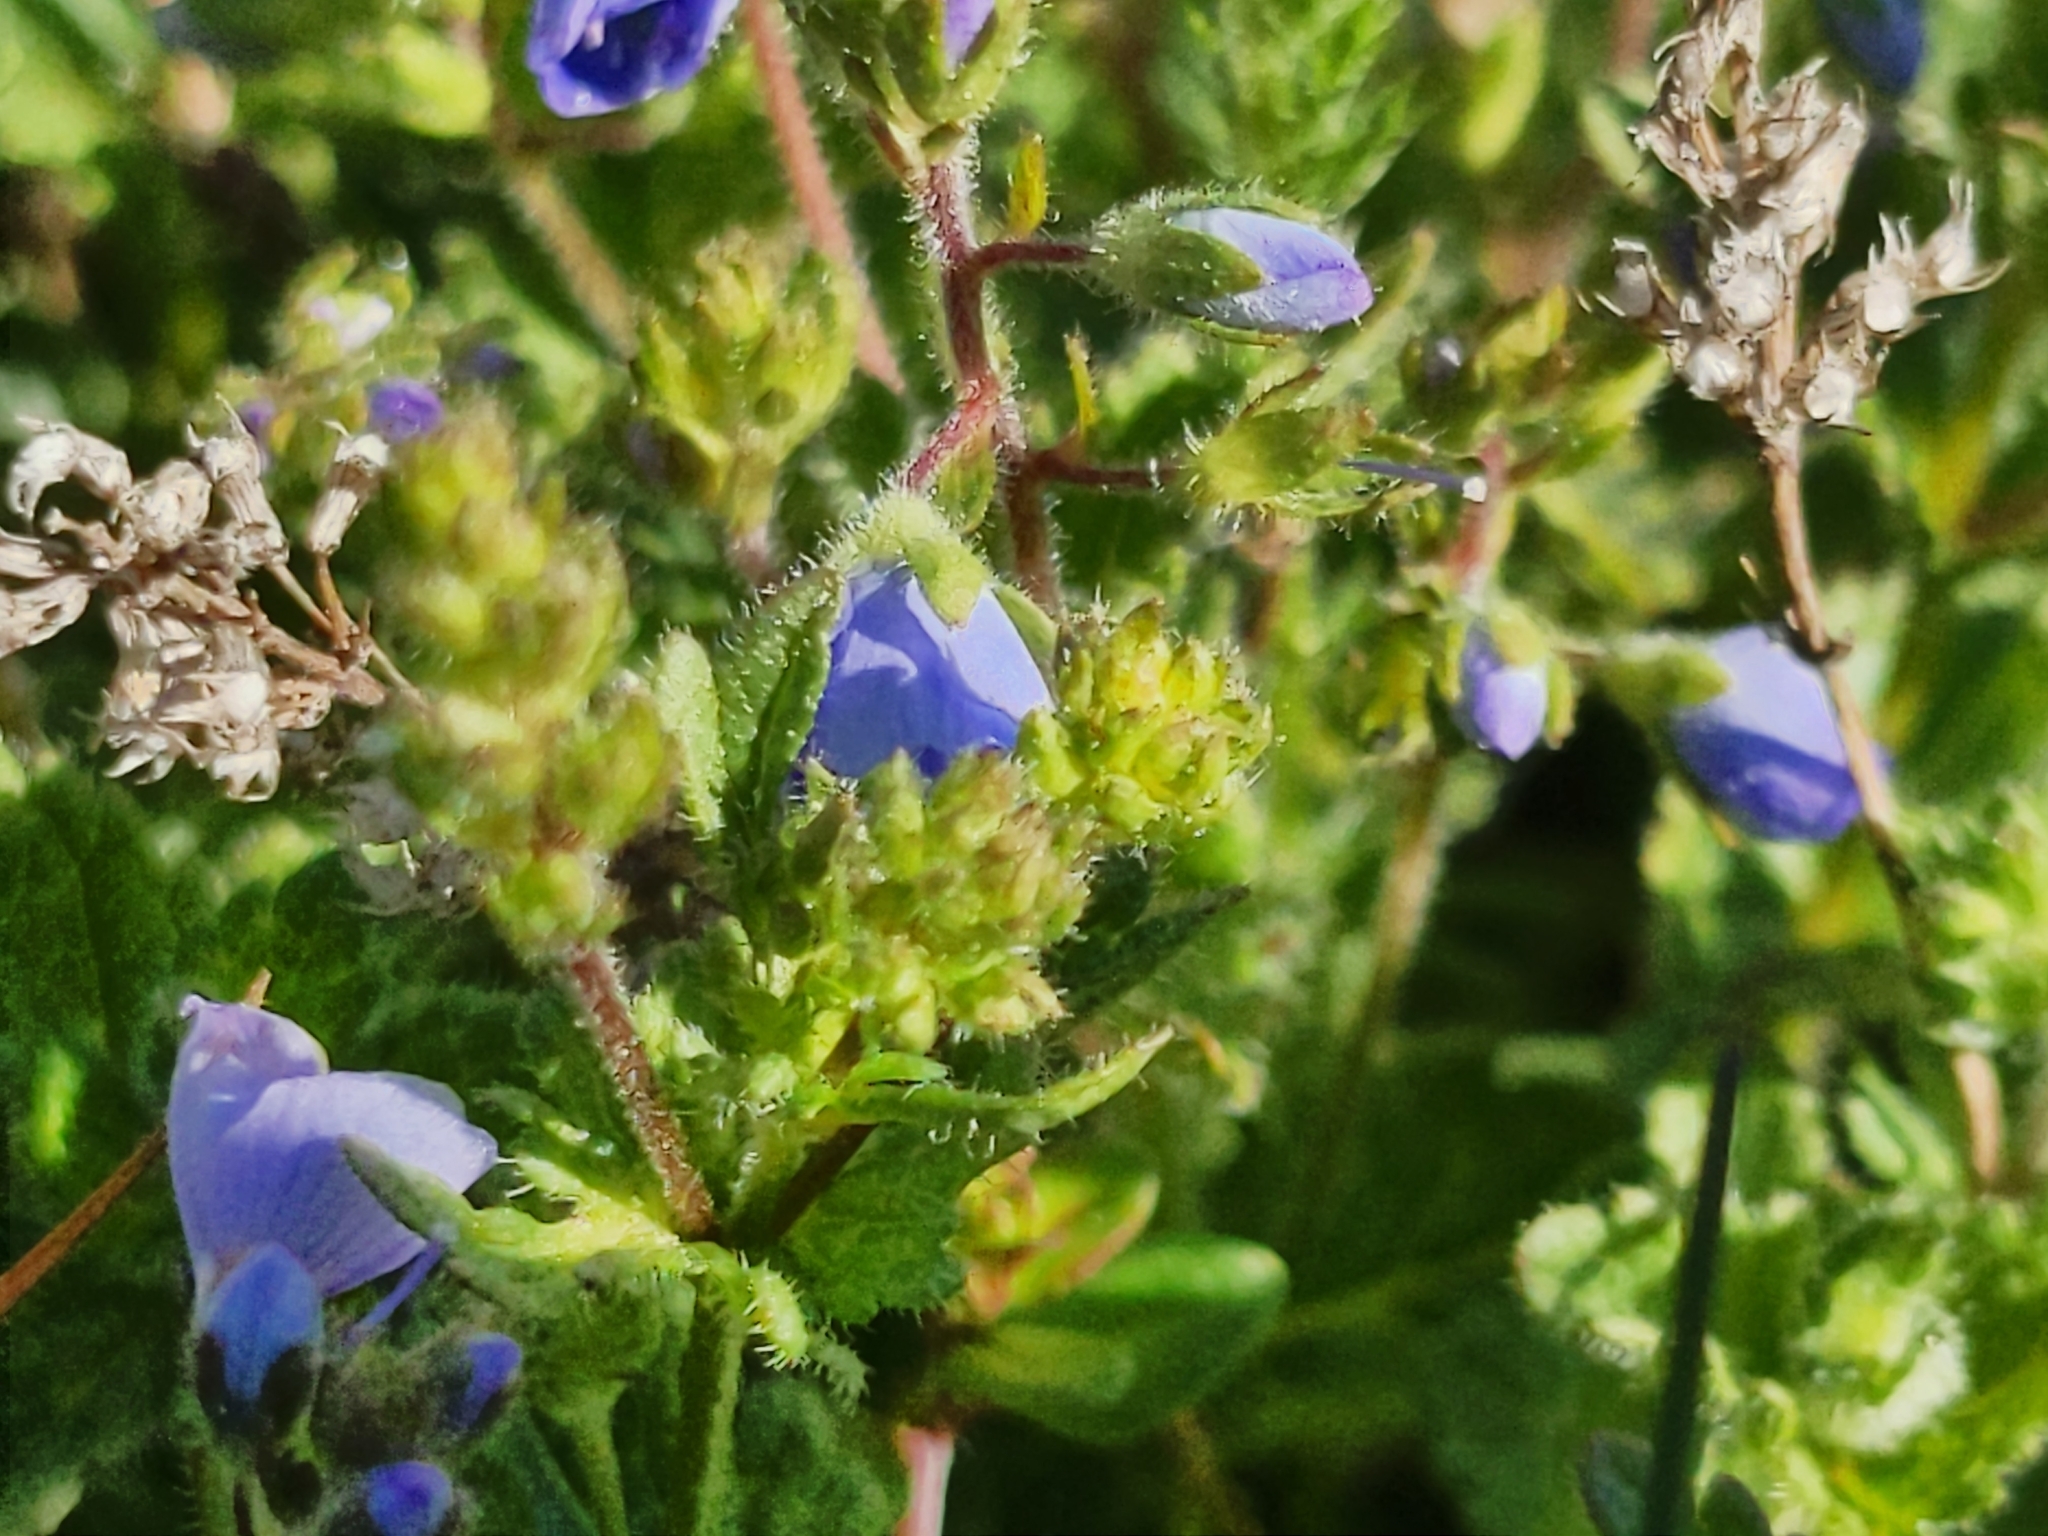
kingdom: Plantae
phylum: Tracheophyta
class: Magnoliopsida
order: Lamiales
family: Plantaginaceae
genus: Veronica
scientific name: Veronica chamaedrys
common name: Germander speedwell
